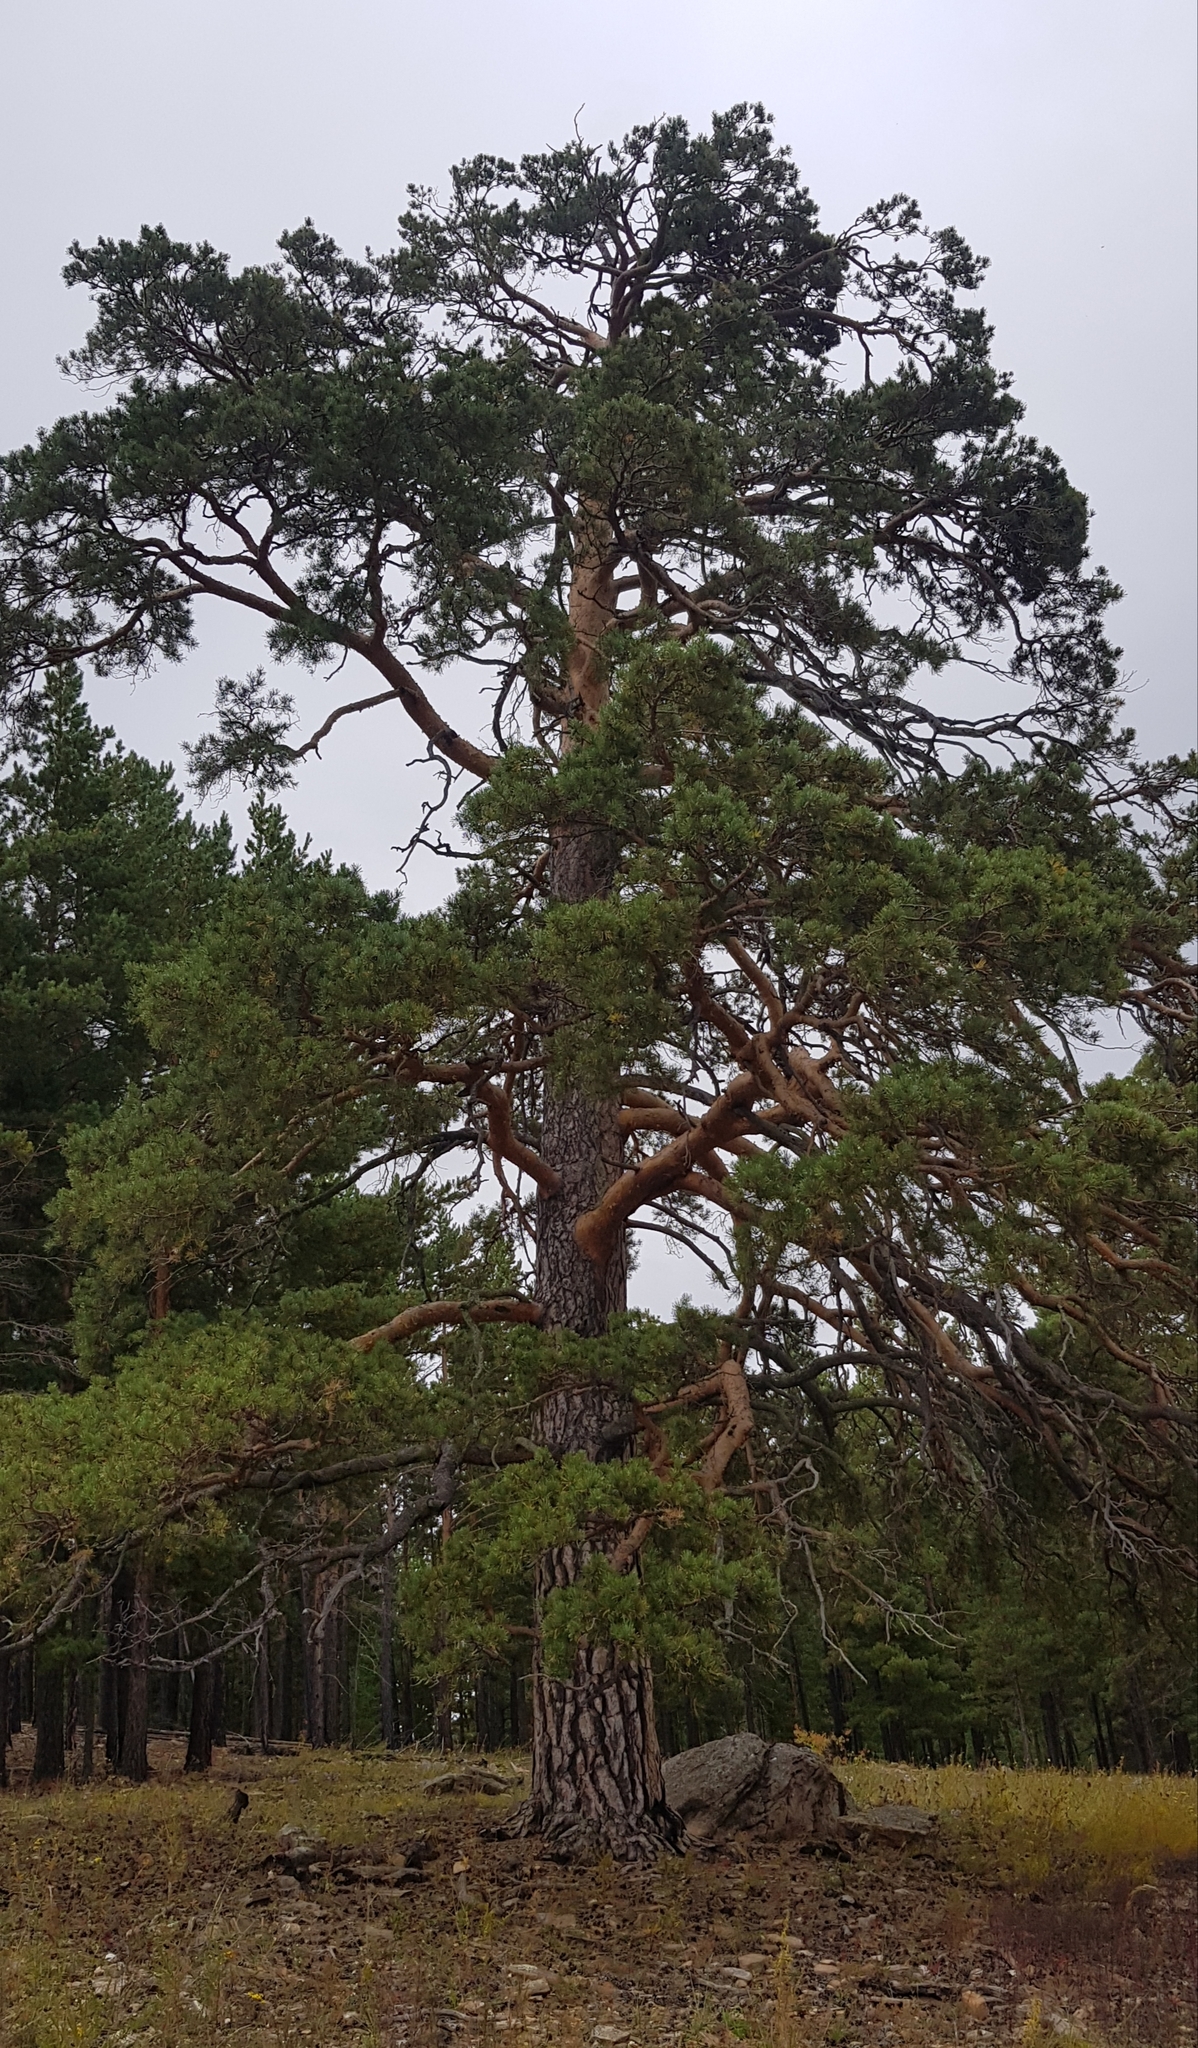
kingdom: Plantae
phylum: Tracheophyta
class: Pinopsida
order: Pinales
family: Pinaceae
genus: Pinus
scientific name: Pinus sylvestris
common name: Scots pine
